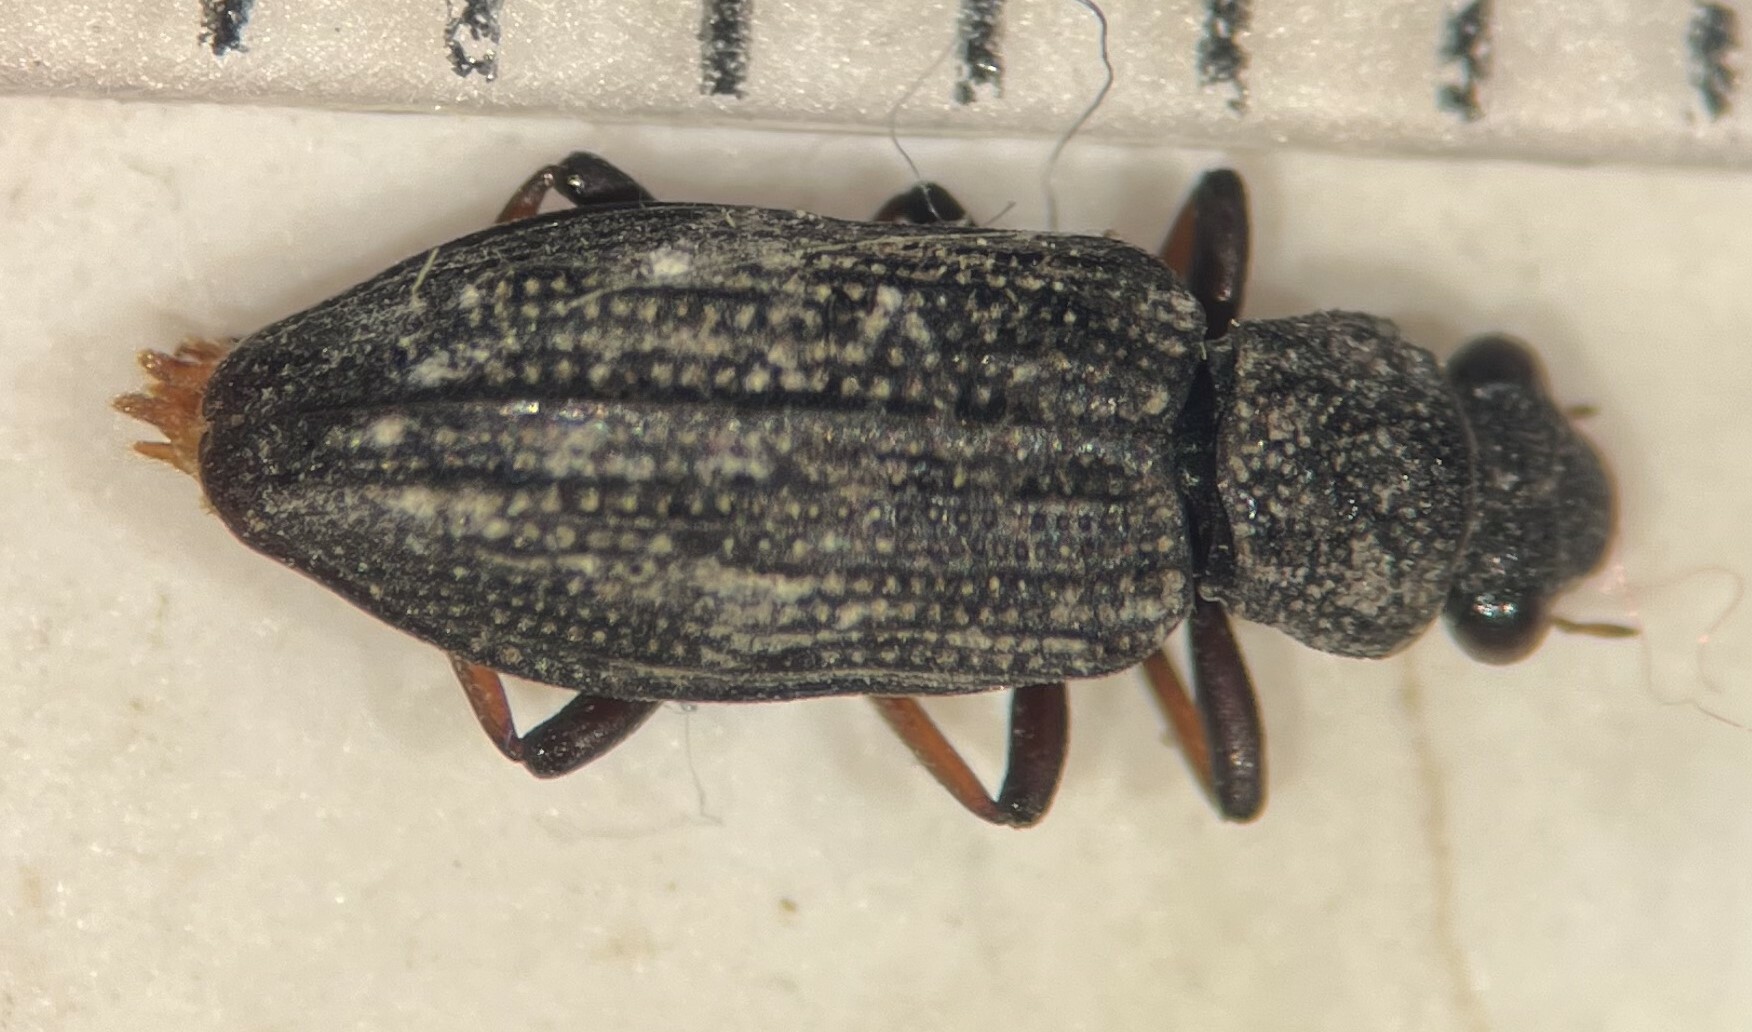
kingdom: Animalia
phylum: Arthropoda
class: Insecta
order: Coleoptera
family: Hydrochidae
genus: Hydrochus
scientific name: Hydrochus rugosus
